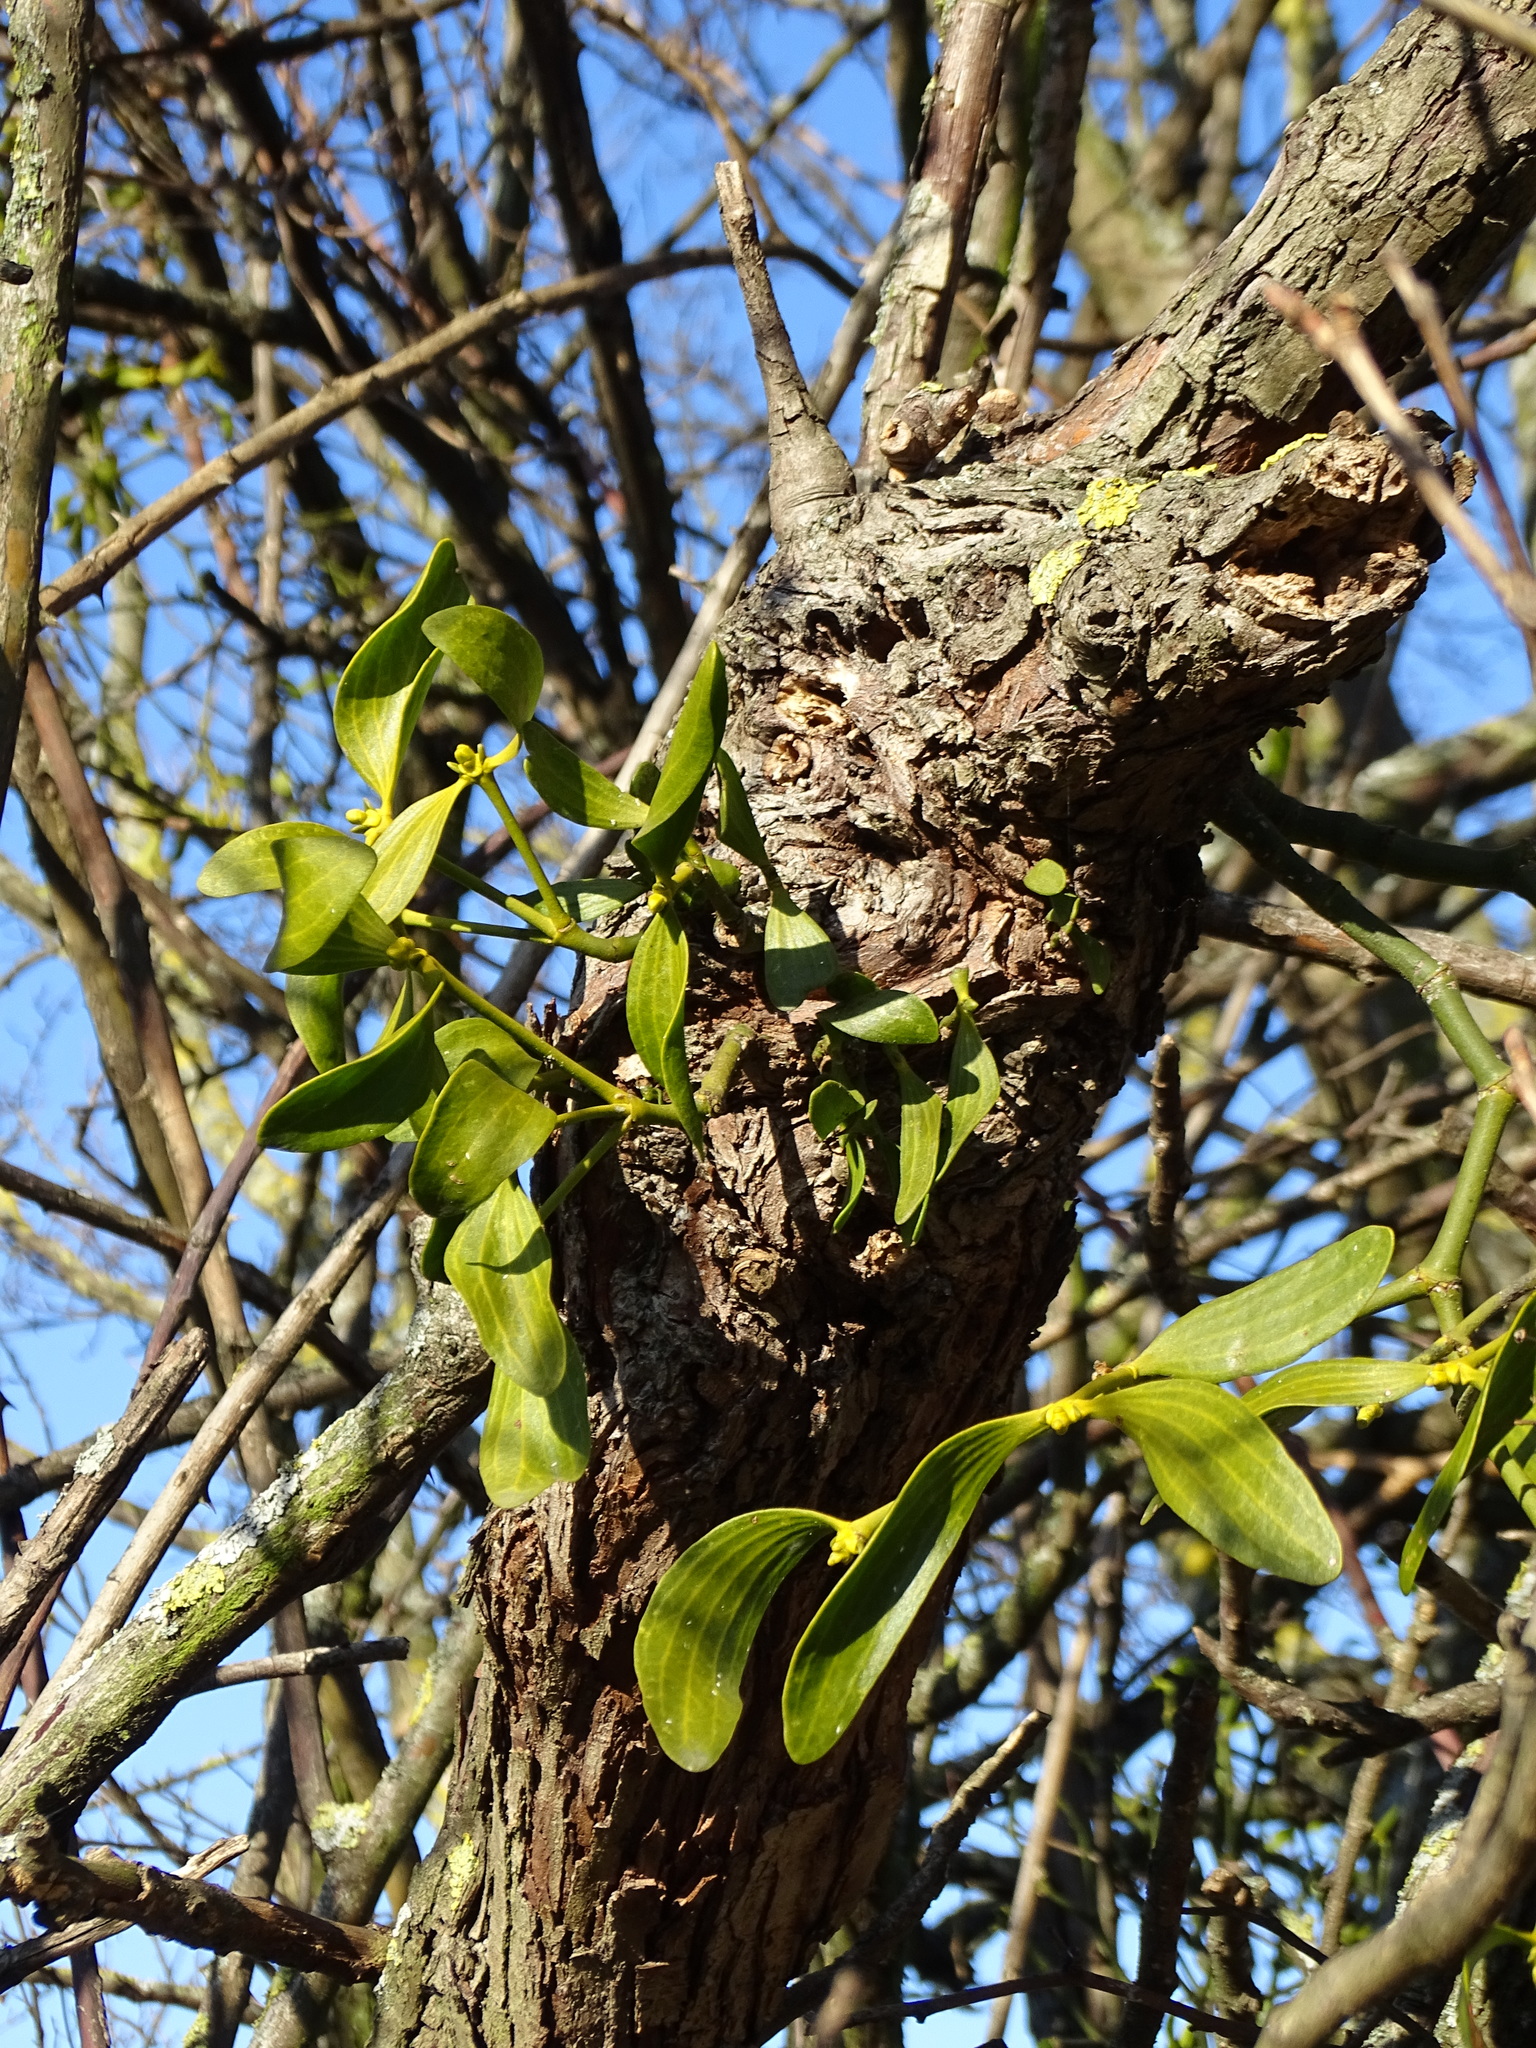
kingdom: Plantae
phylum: Tracheophyta
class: Magnoliopsida
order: Santalales
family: Viscaceae
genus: Viscum
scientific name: Viscum album
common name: Mistletoe
